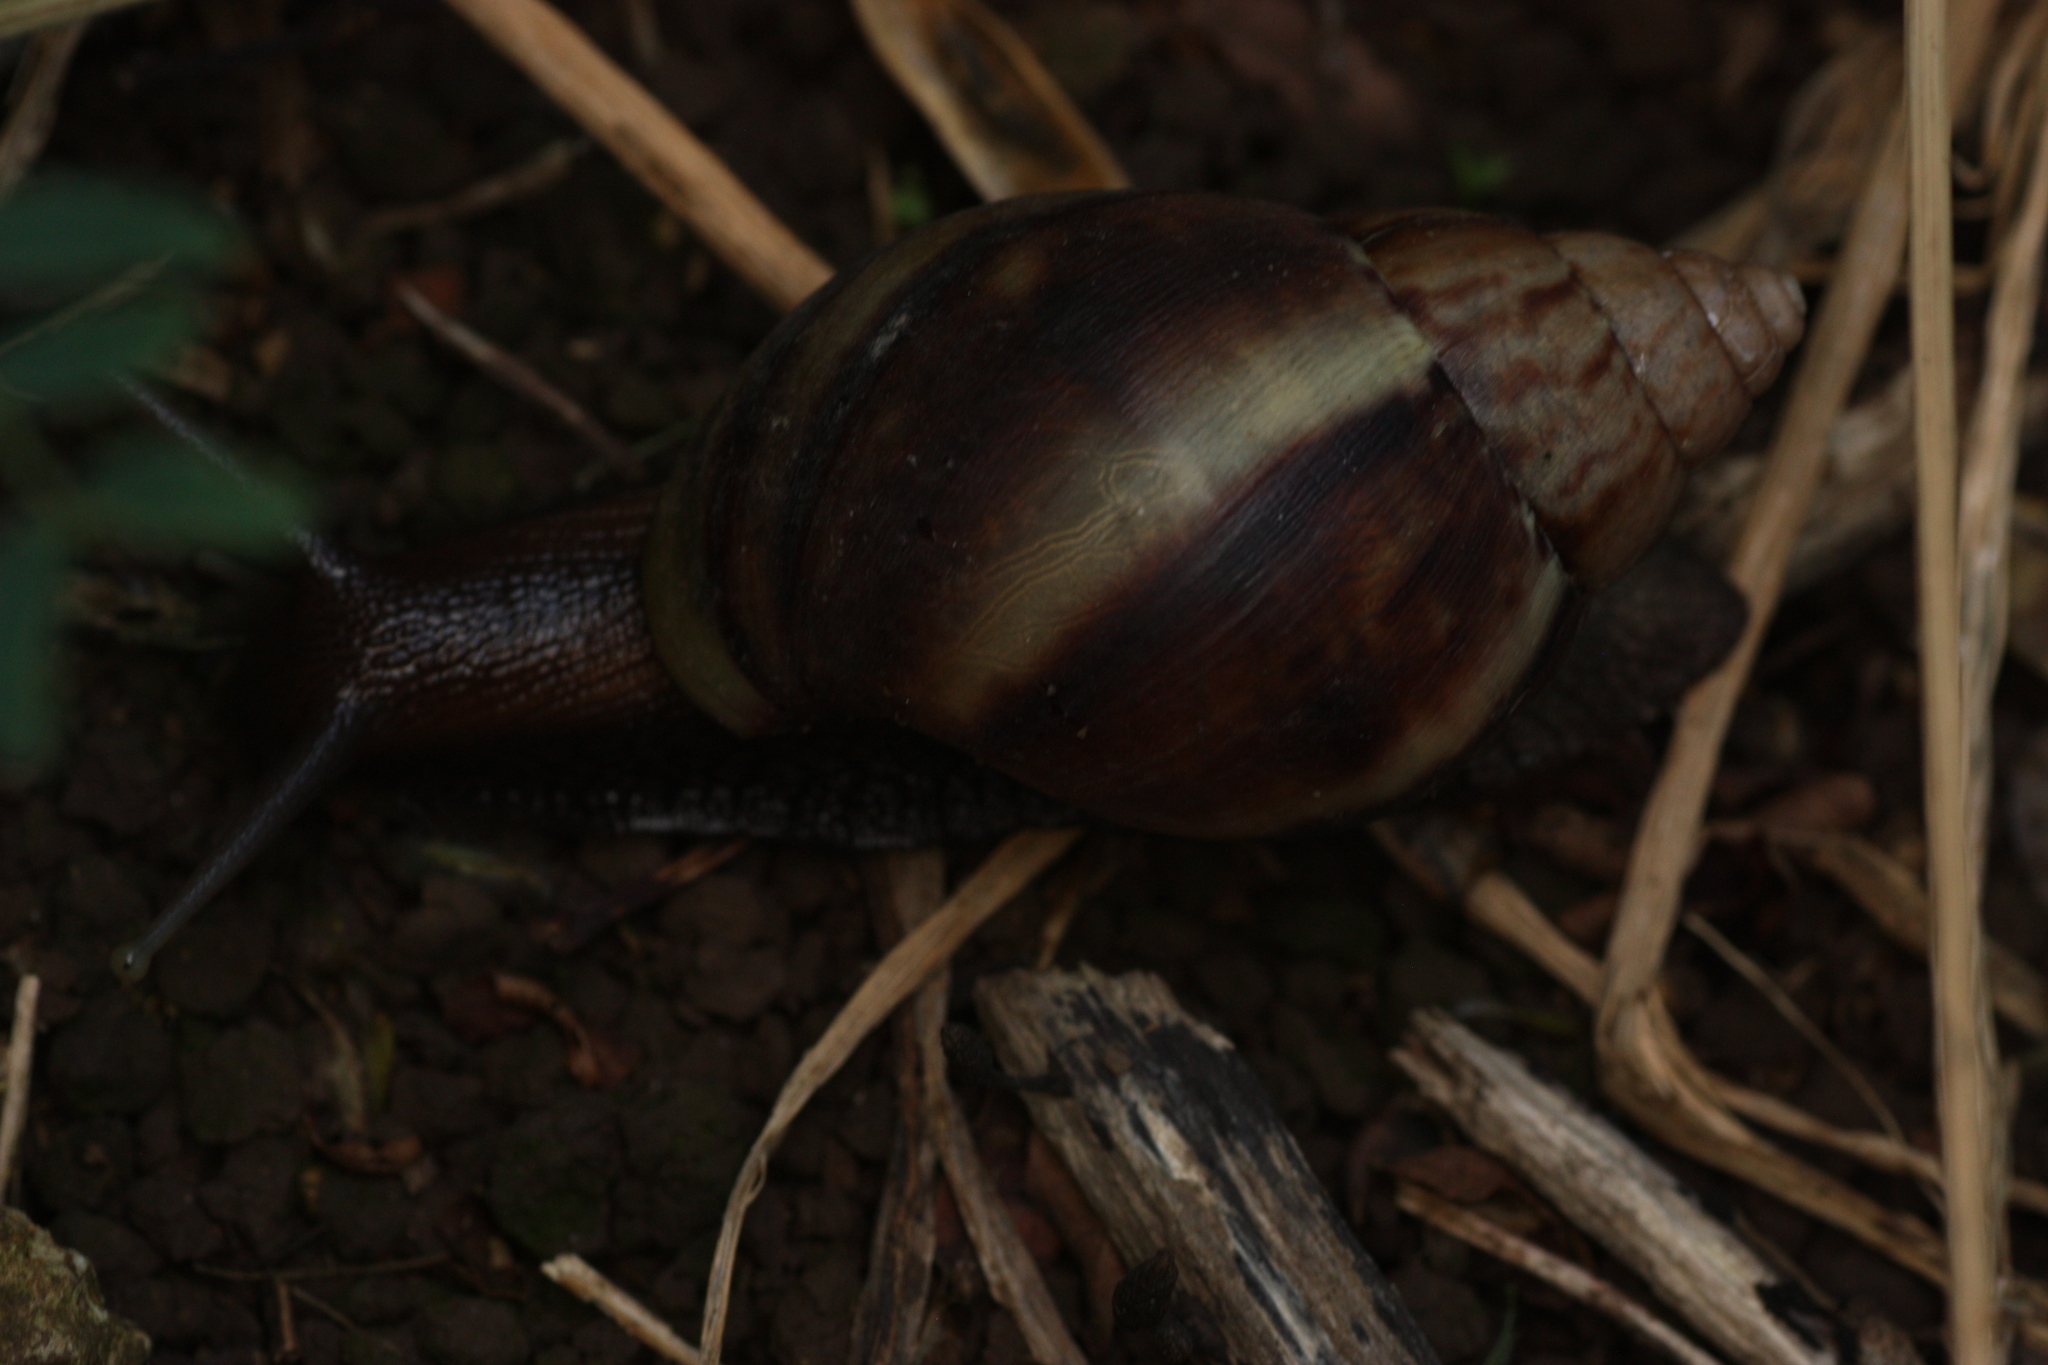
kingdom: Animalia
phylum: Mollusca
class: Gastropoda
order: Stylommatophora
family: Achatinidae
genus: Lissachatina
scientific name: Lissachatina fulica
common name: Giant african snail
